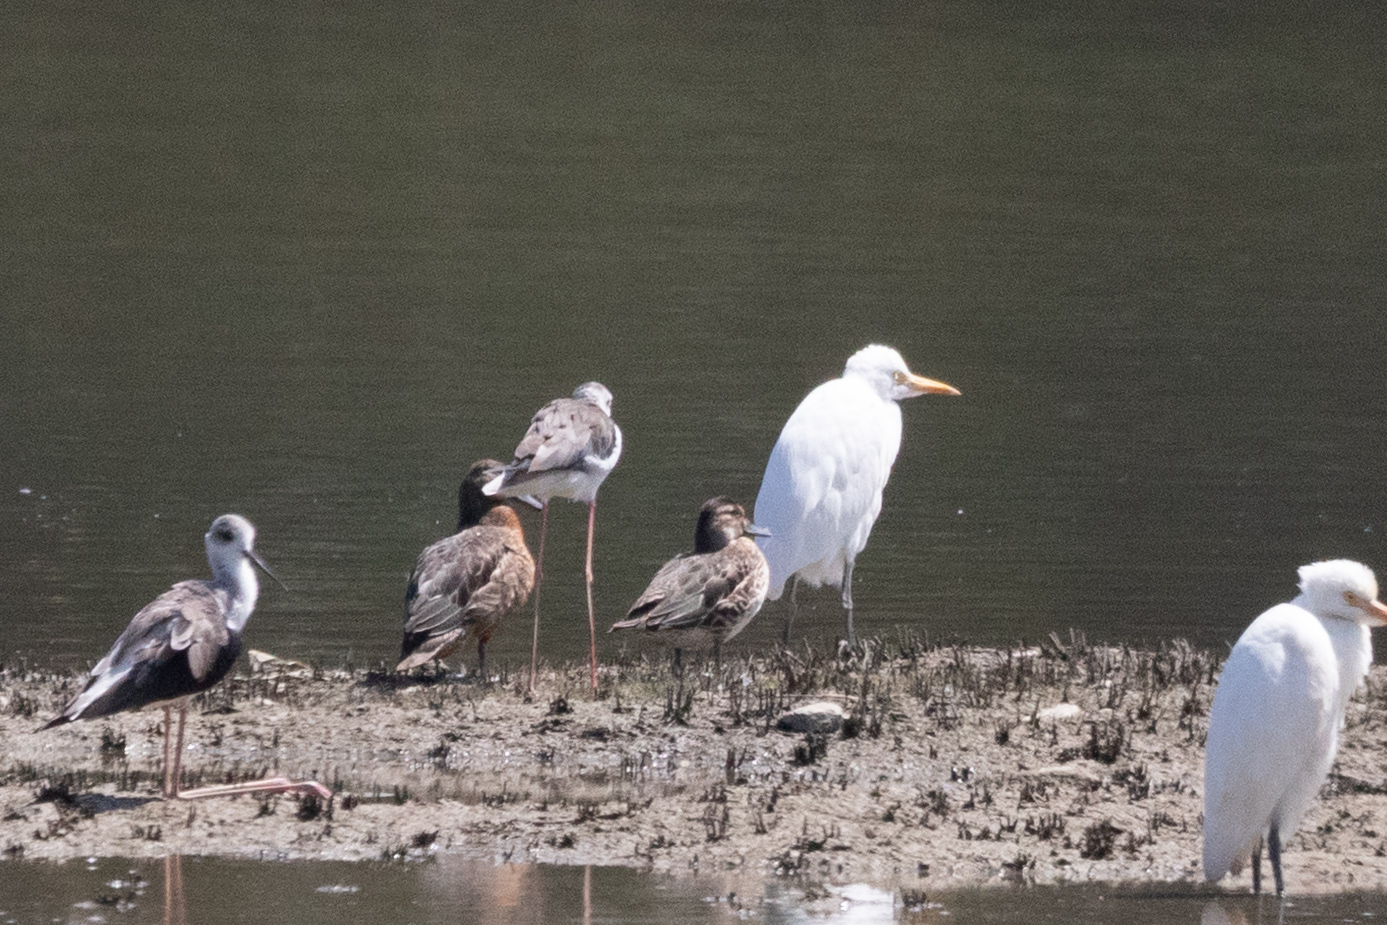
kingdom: Animalia
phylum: Chordata
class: Aves
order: Anseriformes
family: Anatidae
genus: Spatula
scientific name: Spatula querquedula
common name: Garganey
